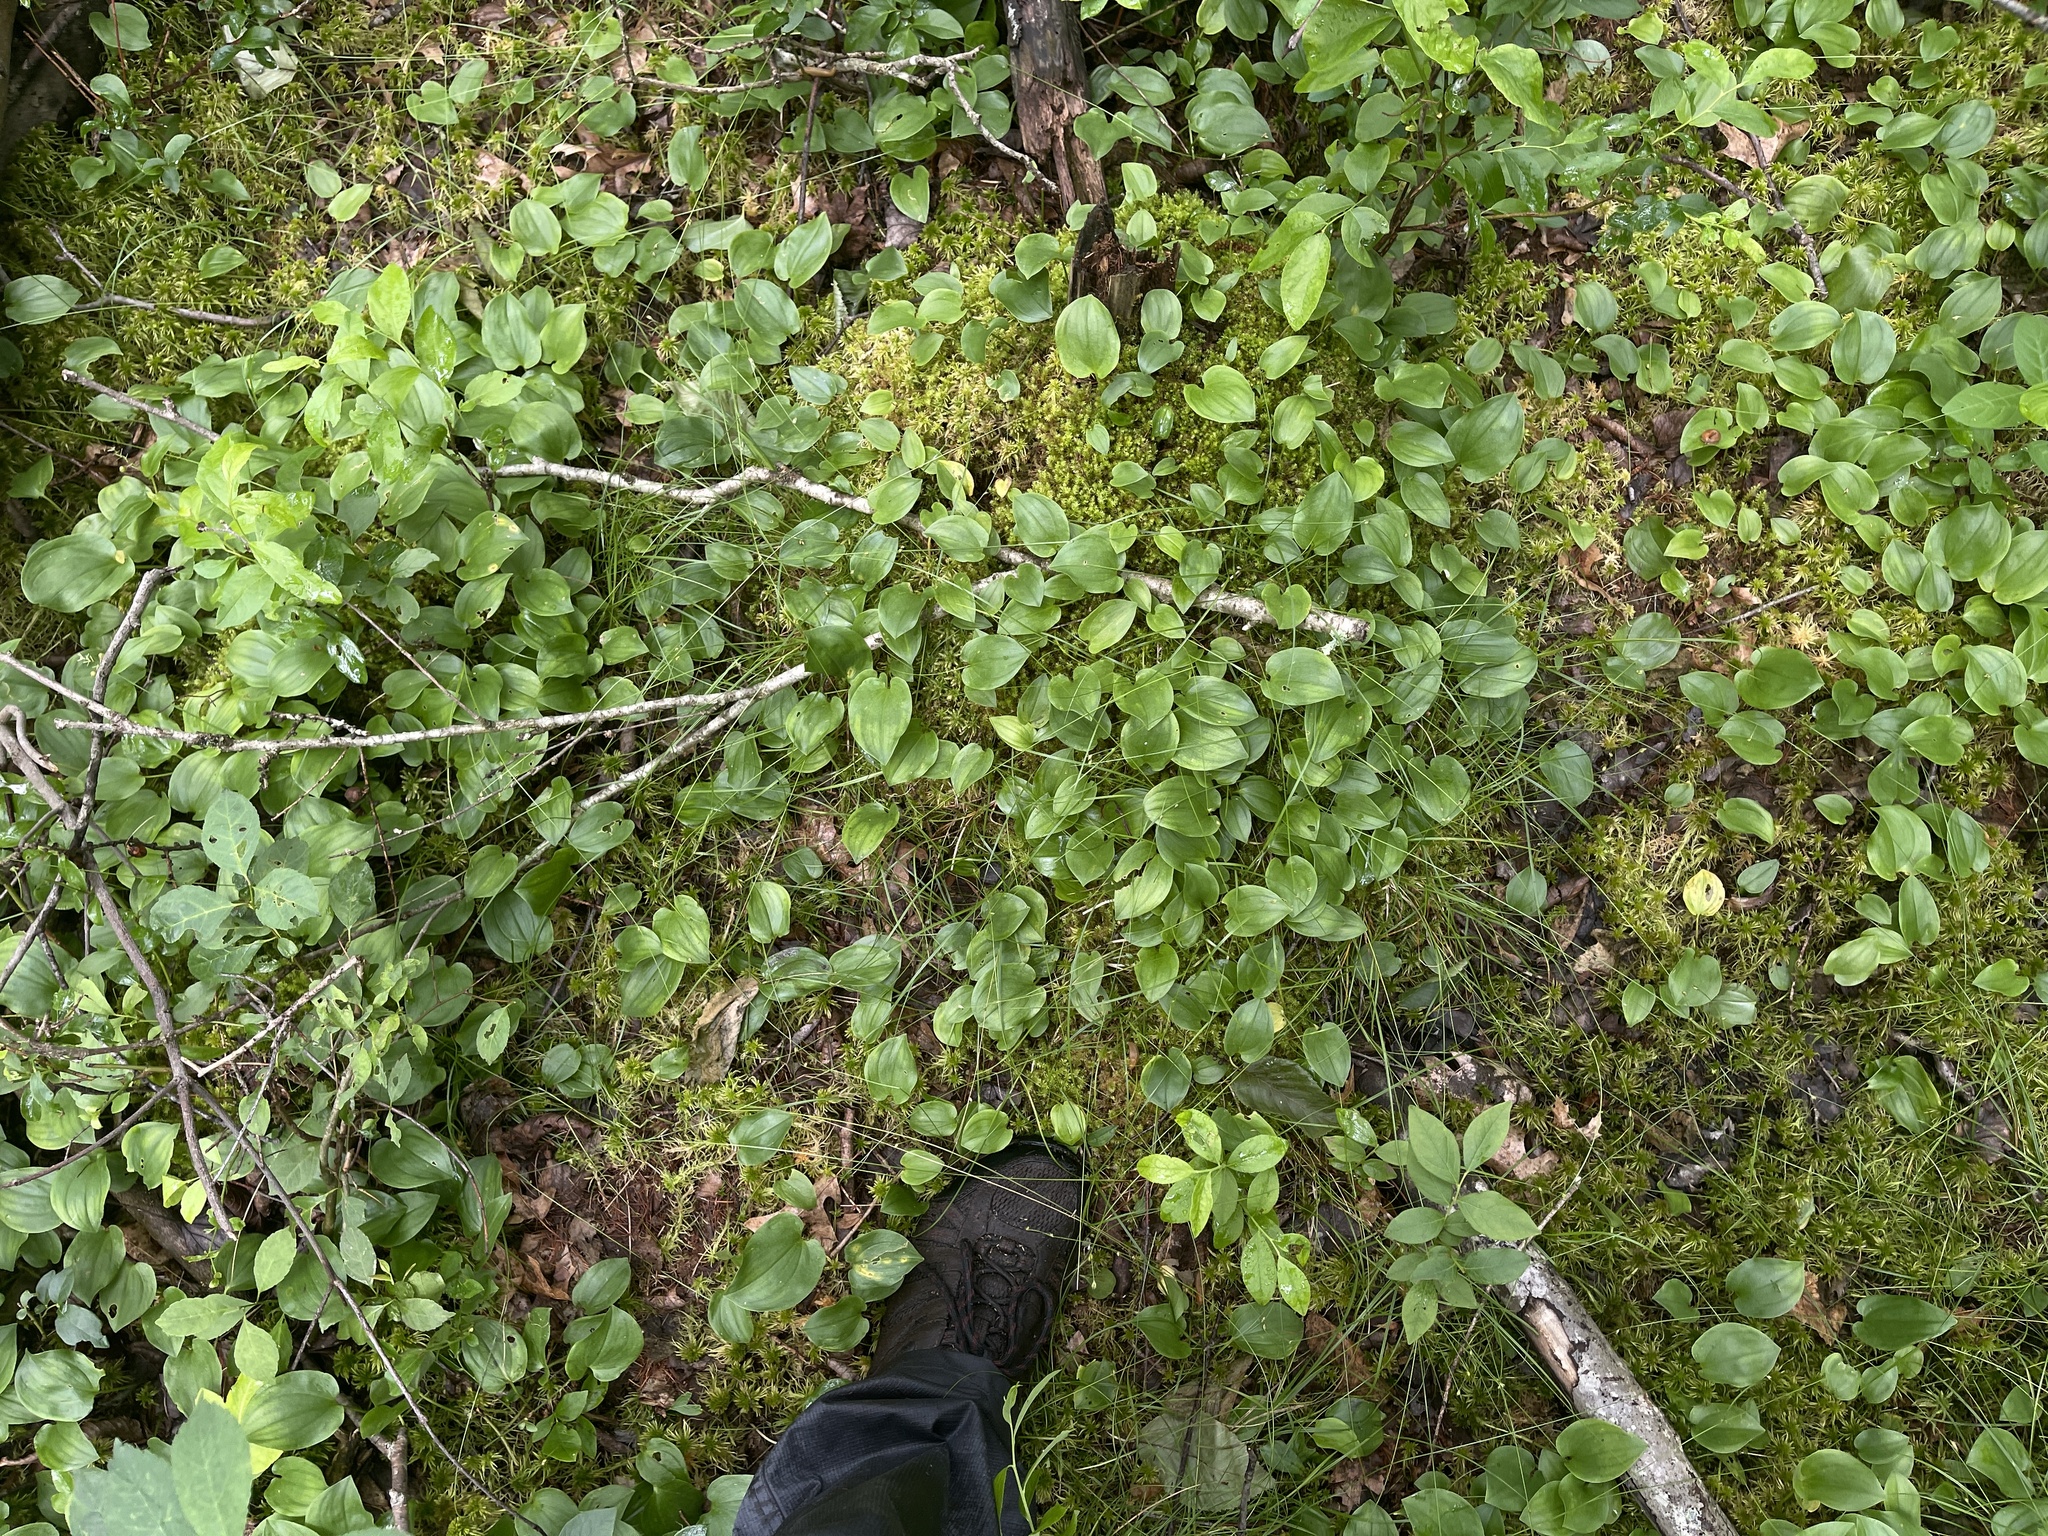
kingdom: Plantae
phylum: Tracheophyta
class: Liliopsida
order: Poales
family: Cyperaceae
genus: Carex
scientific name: Carex trisperma
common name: Three-seeded sedge
